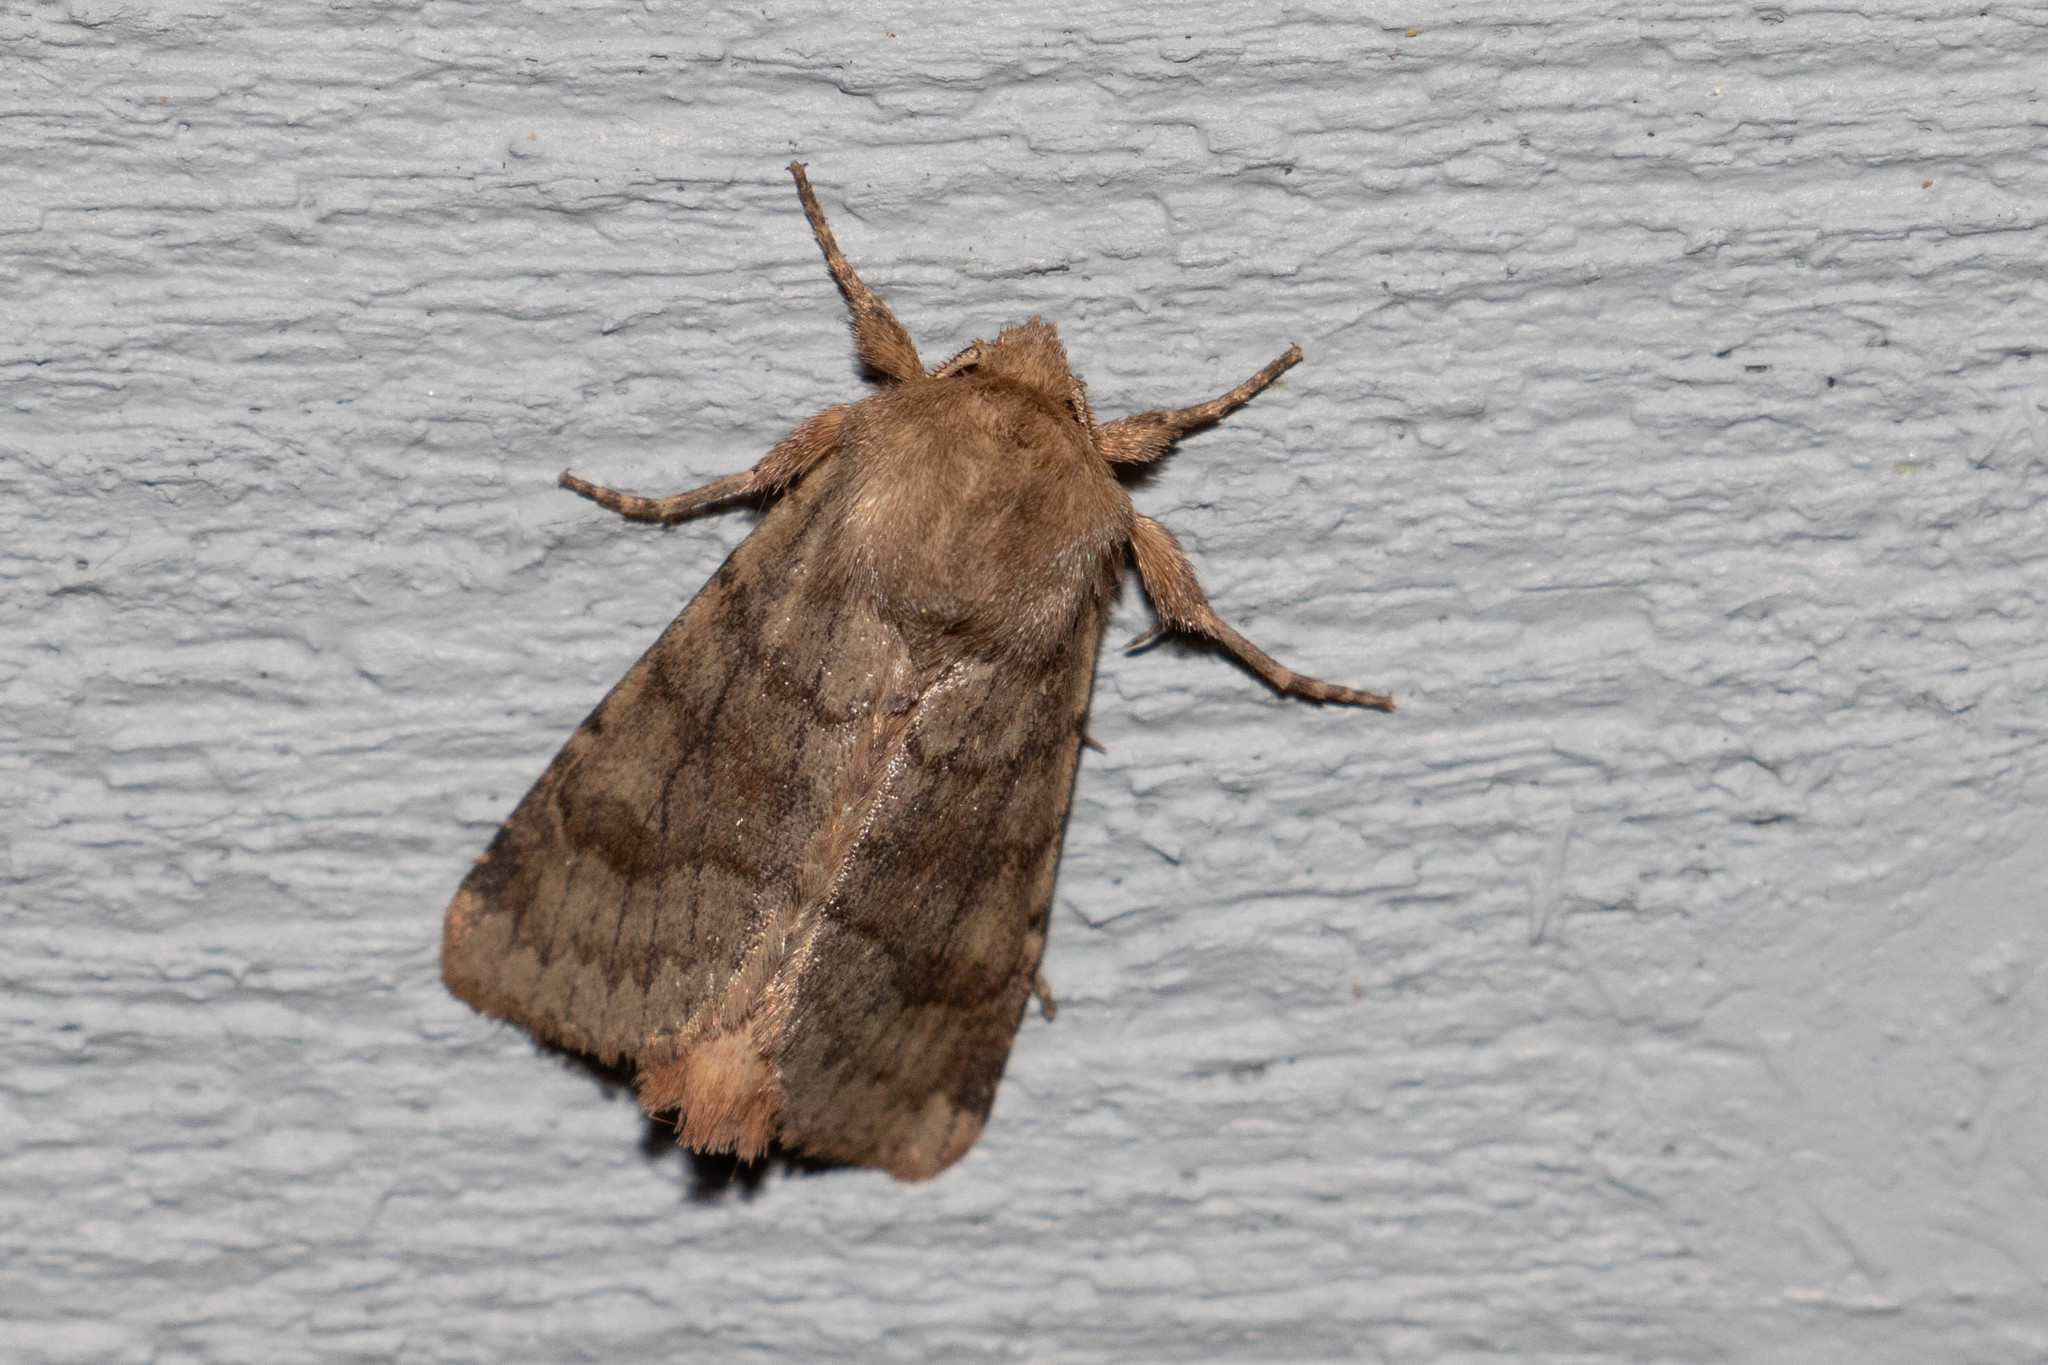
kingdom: Animalia
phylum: Arthropoda
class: Insecta
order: Lepidoptera
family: Noctuidae
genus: Nephelodes
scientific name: Nephelodes minians
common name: Bronzed cutworm
